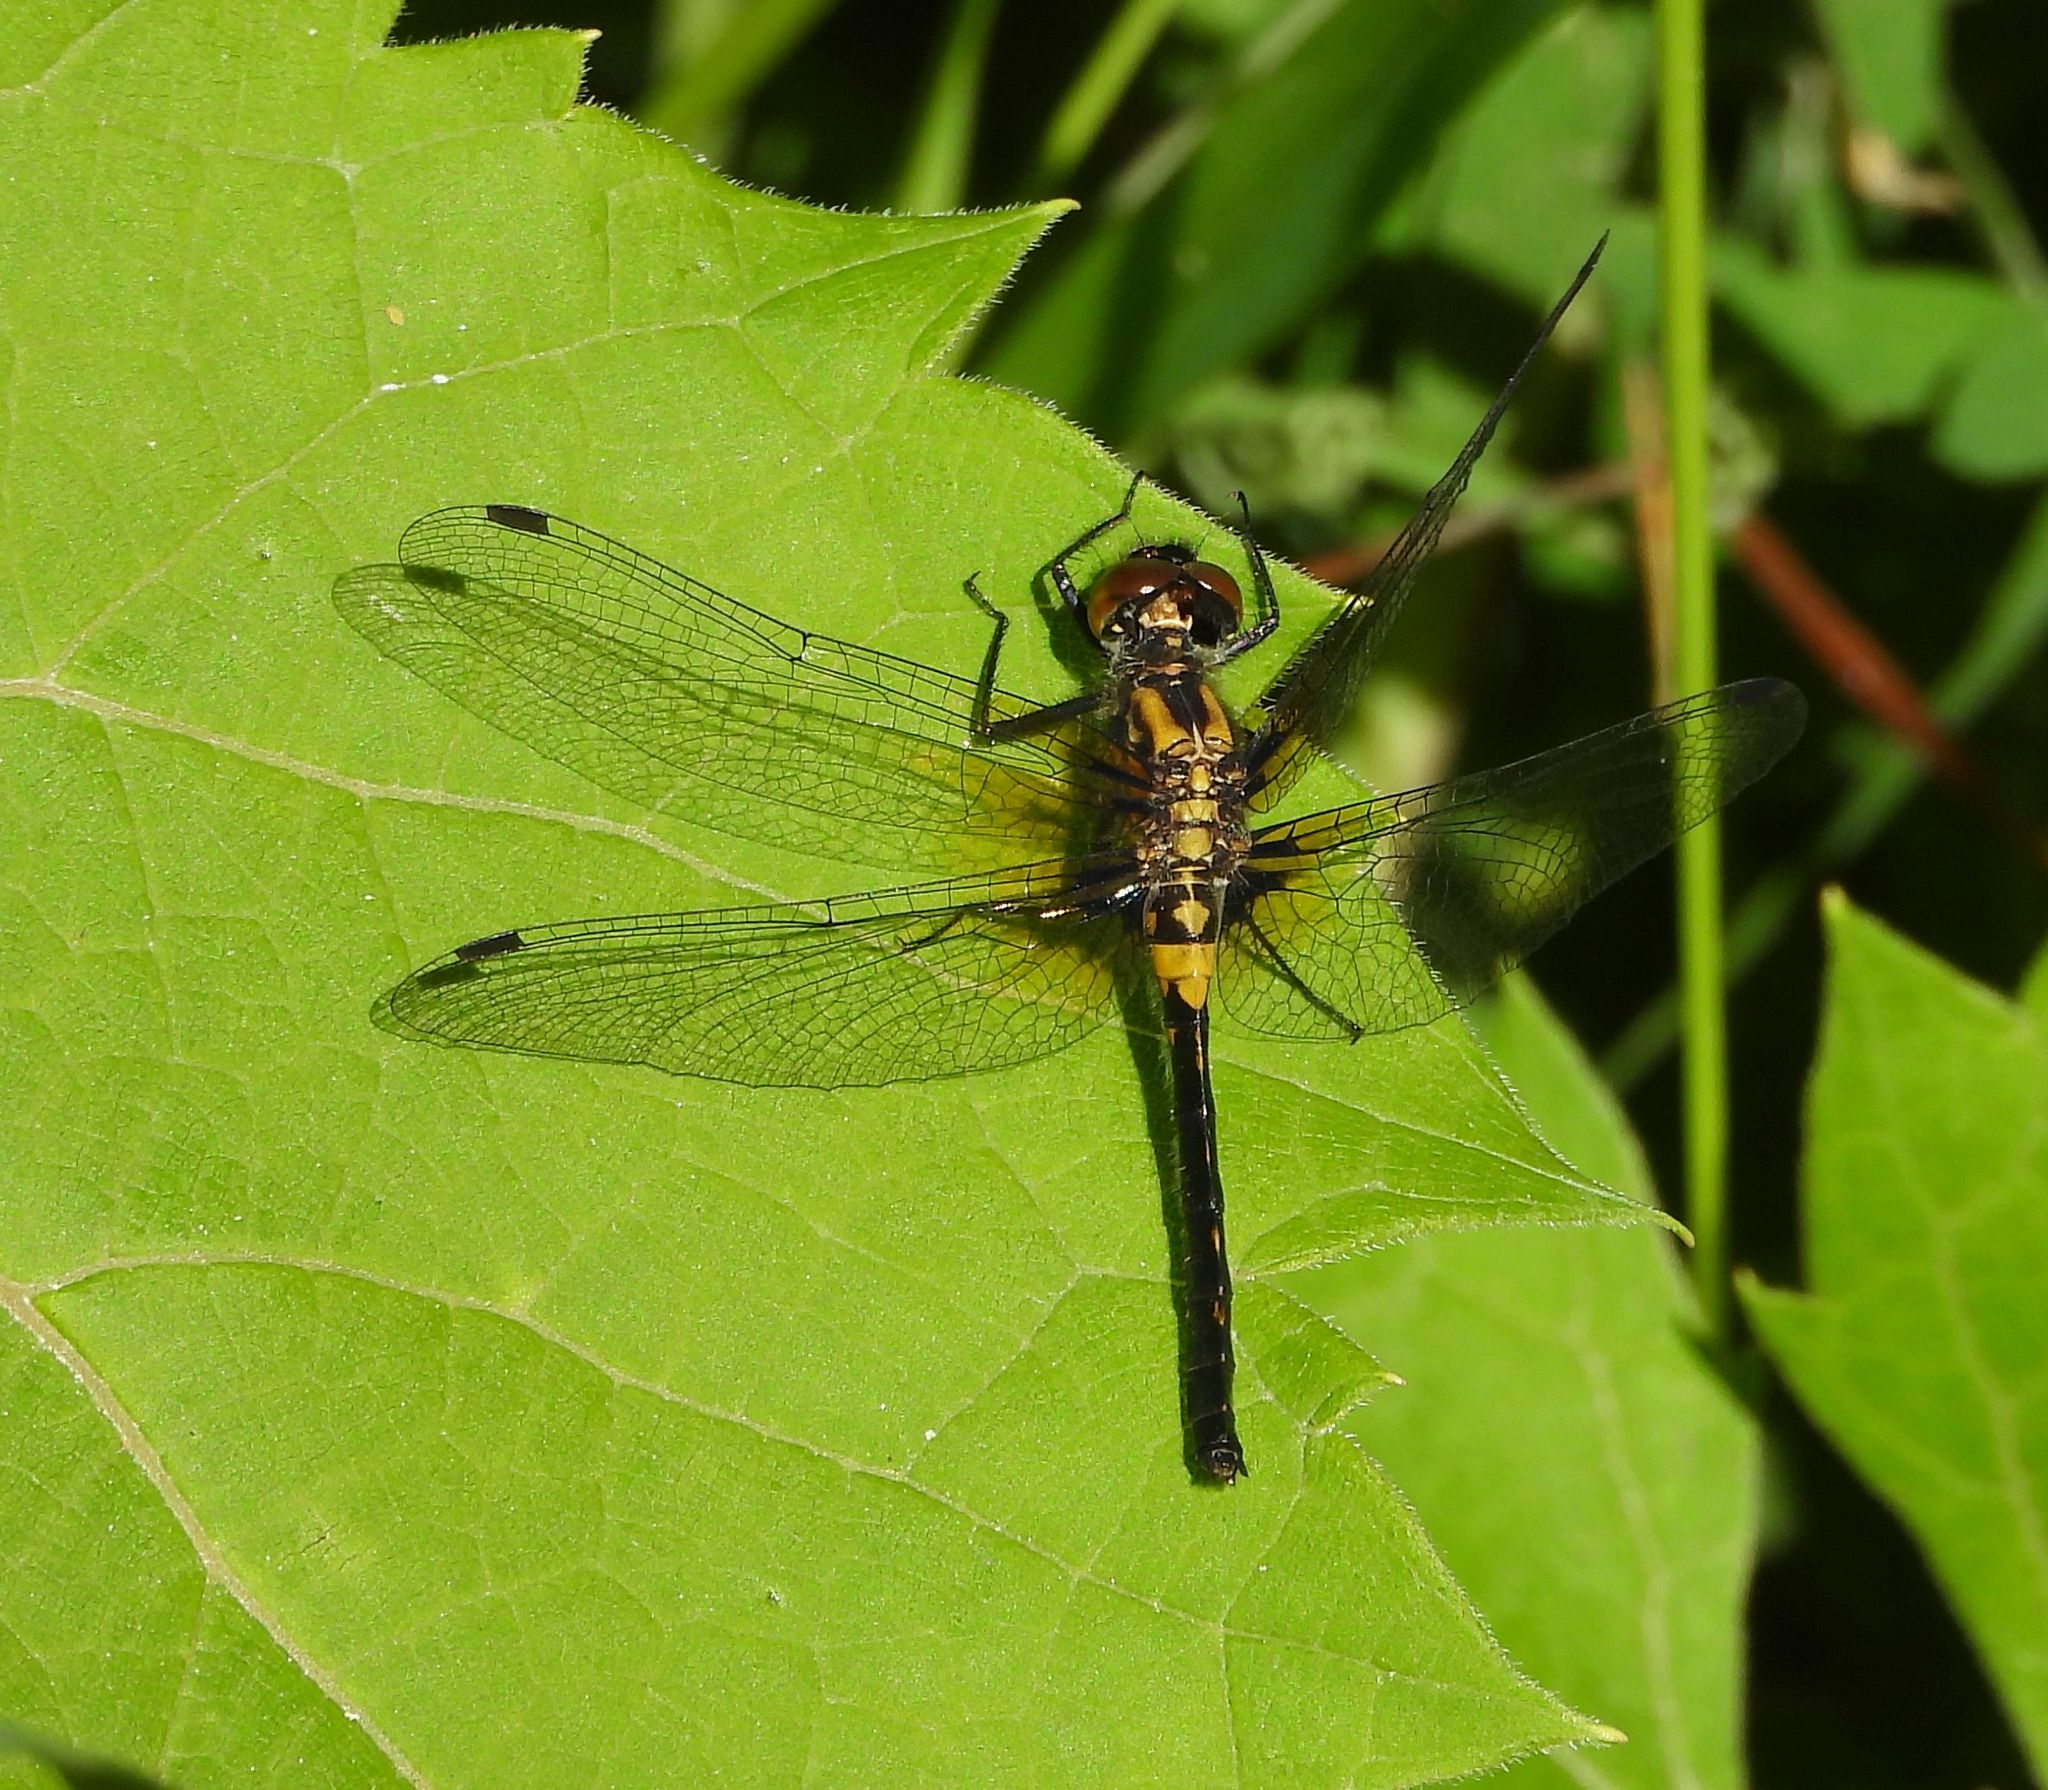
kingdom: Animalia
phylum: Arthropoda
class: Insecta
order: Odonata
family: Libellulidae
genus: Leucorrhinia
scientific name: Leucorrhinia proxima
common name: Belted whiteface
